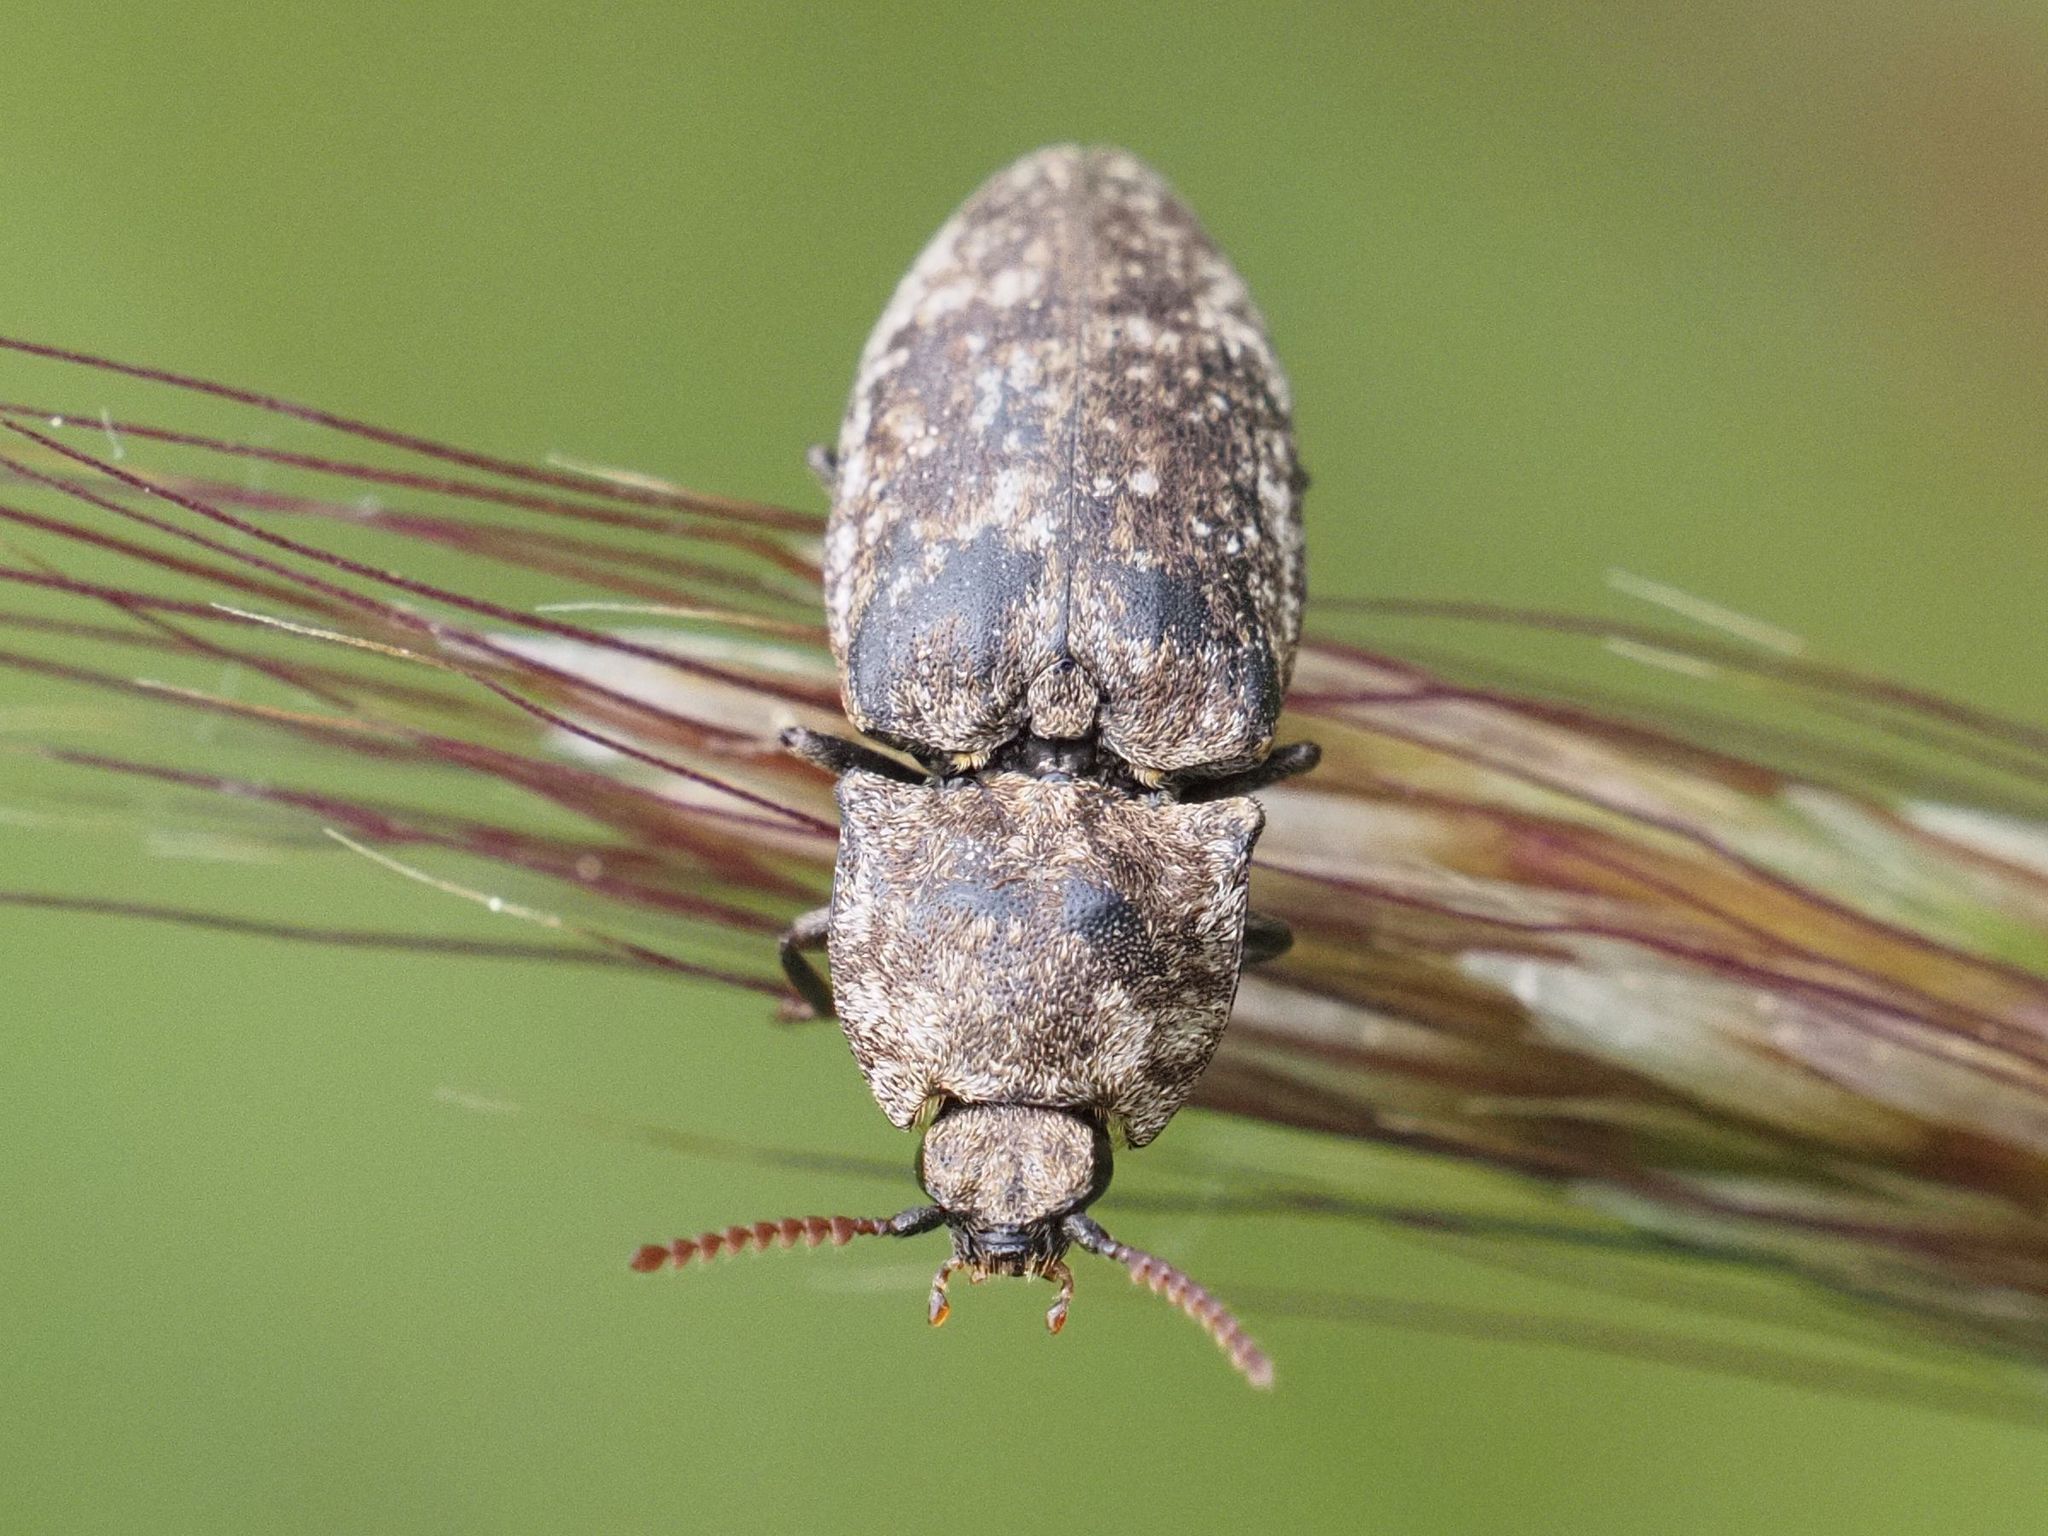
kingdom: Animalia
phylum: Arthropoda
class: Insecta
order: Coleoptera
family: Elateridae
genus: Agrypnus
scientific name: Agrypnus murinus
